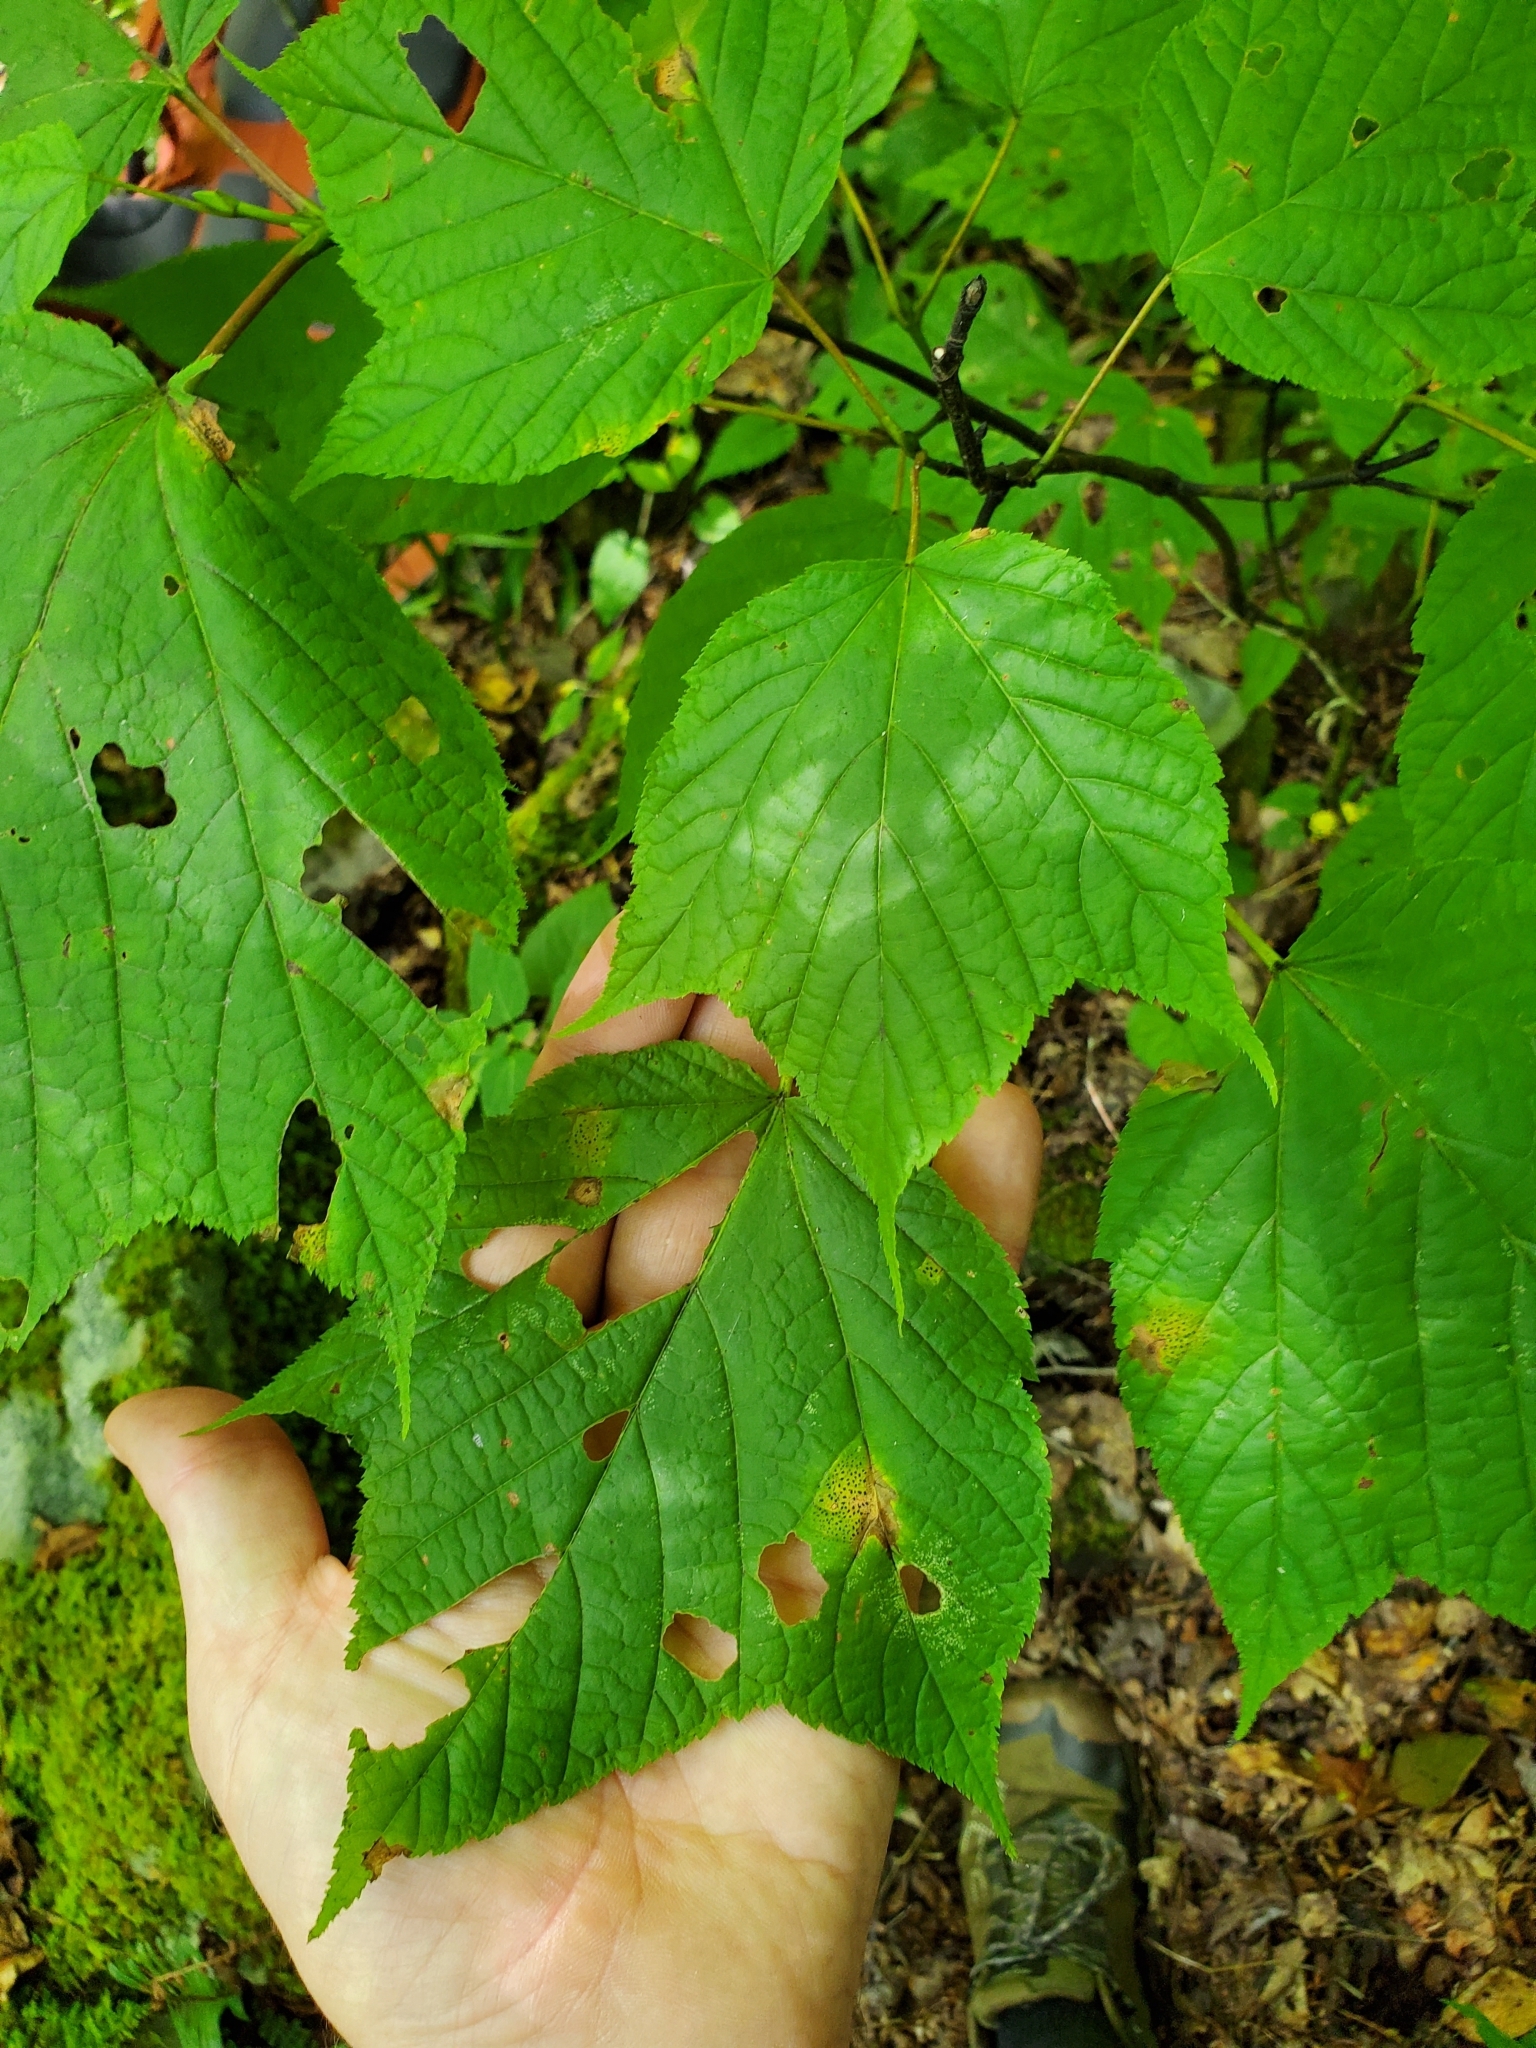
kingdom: Plantae
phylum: Tracheophyta
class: Magnoliopsida
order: Sapindales
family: Sapindaceae
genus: Acer
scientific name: Acer pensylvanicum
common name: Moosewood
